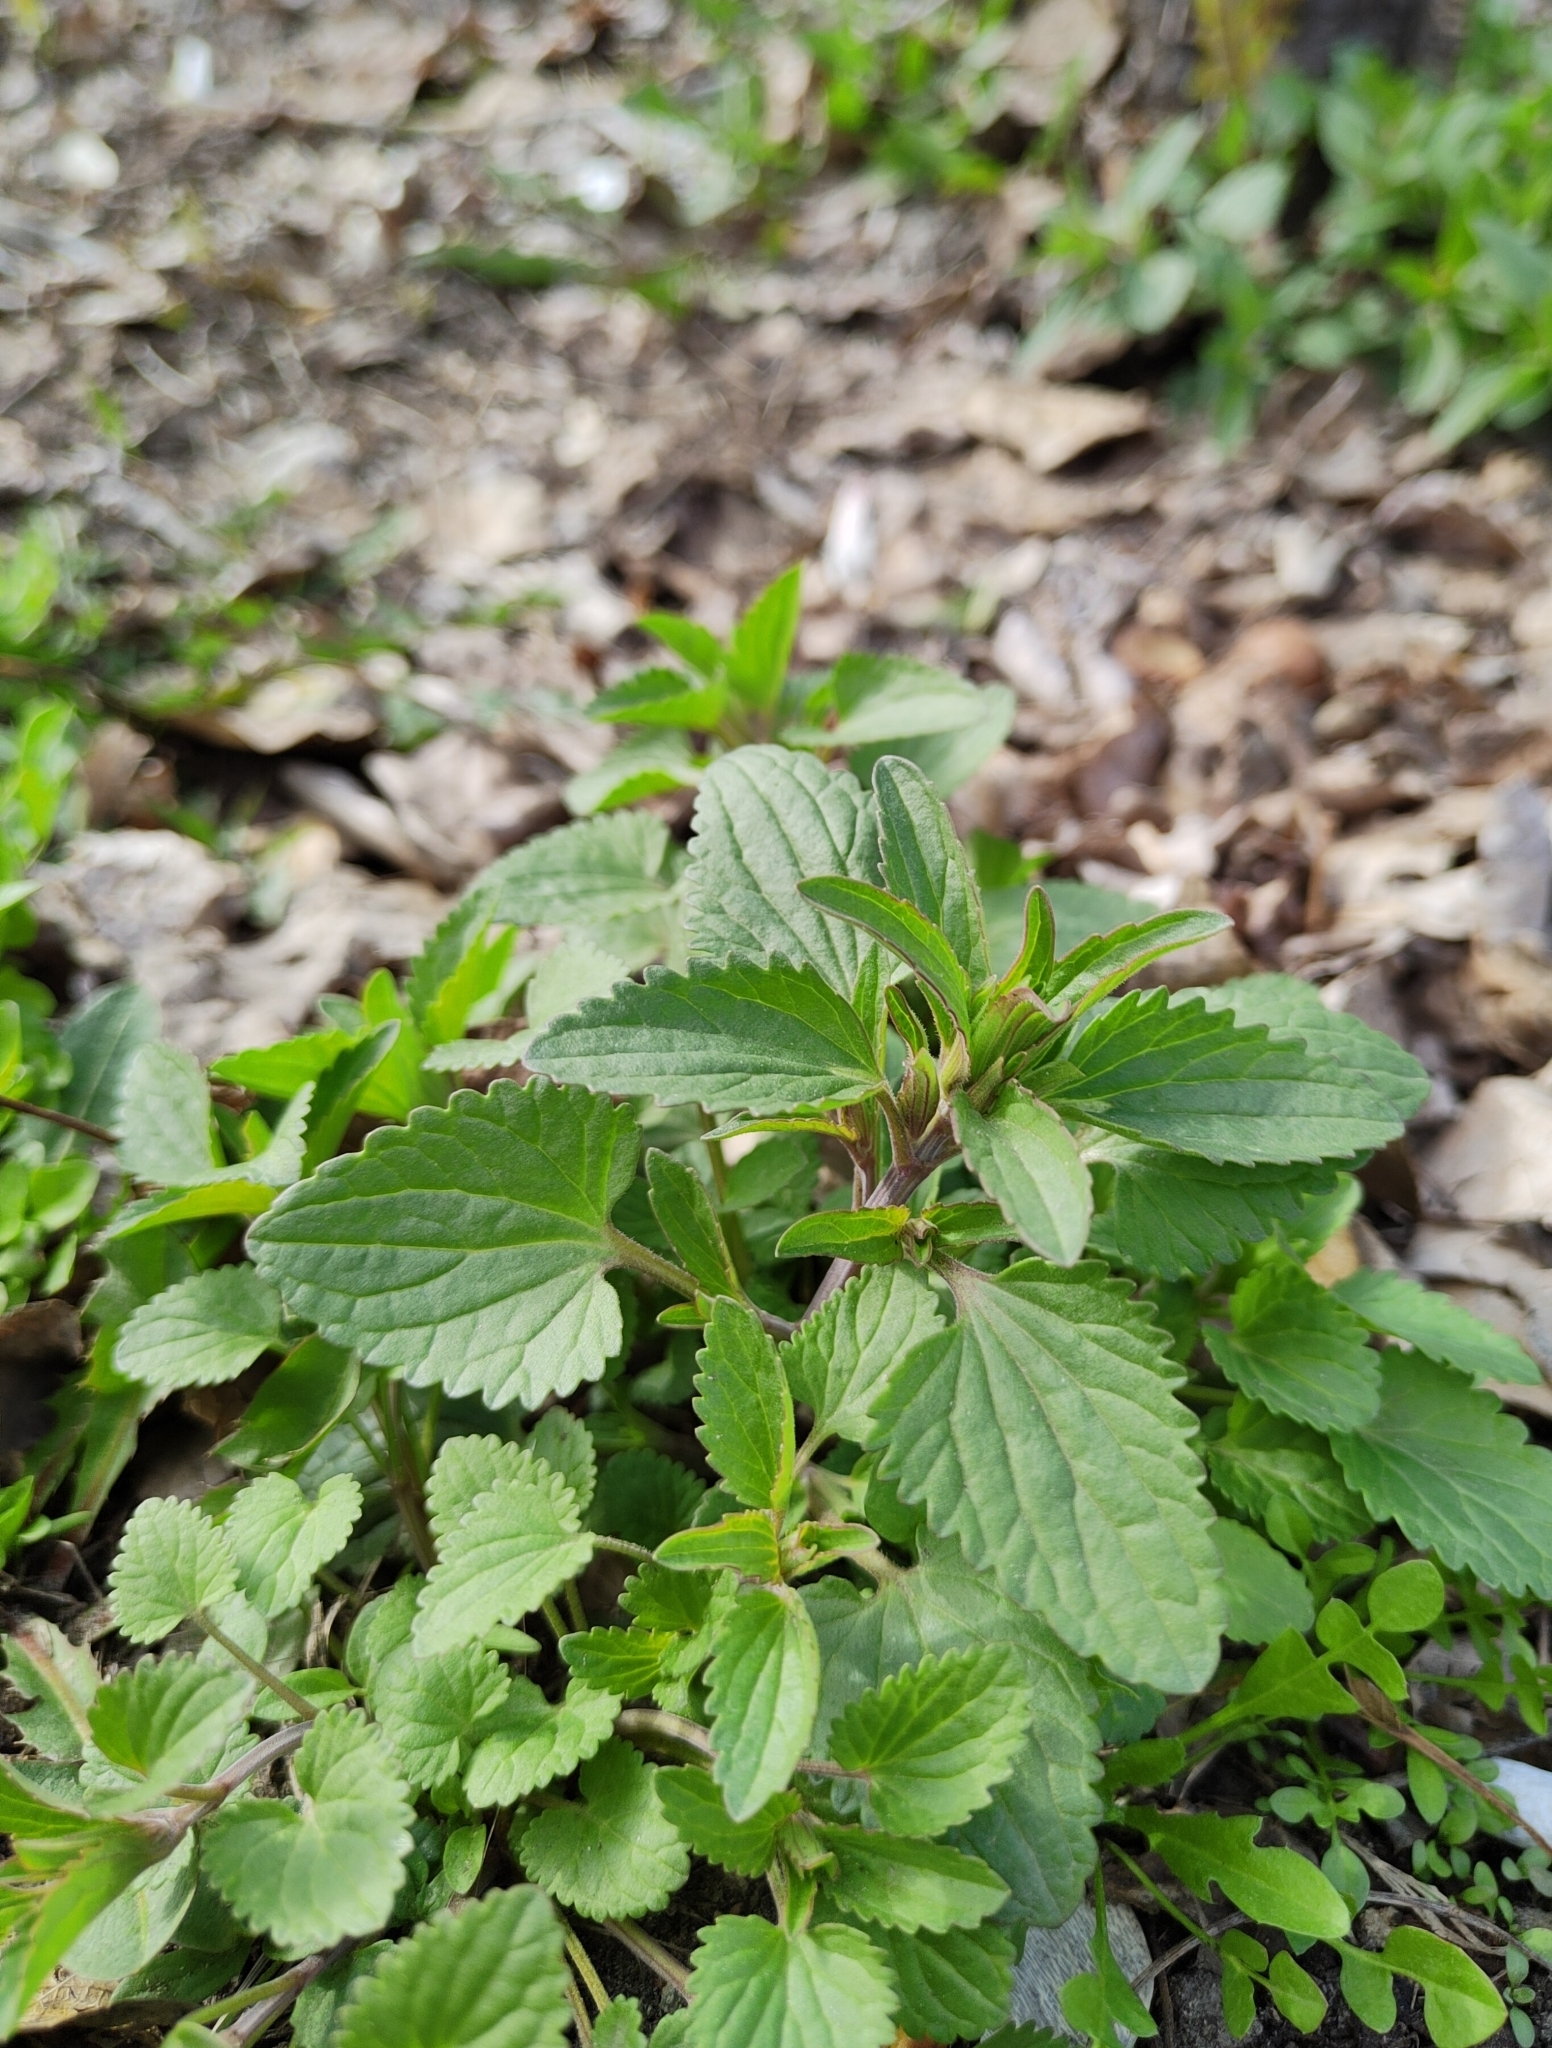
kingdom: Plantae
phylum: Tracheophyta
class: Magnoliopsida
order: Lamiales
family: Lamiaceae
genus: Dracocephalum
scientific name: Dracocephalum thymiflorum
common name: Thymeleaf dragonhead
